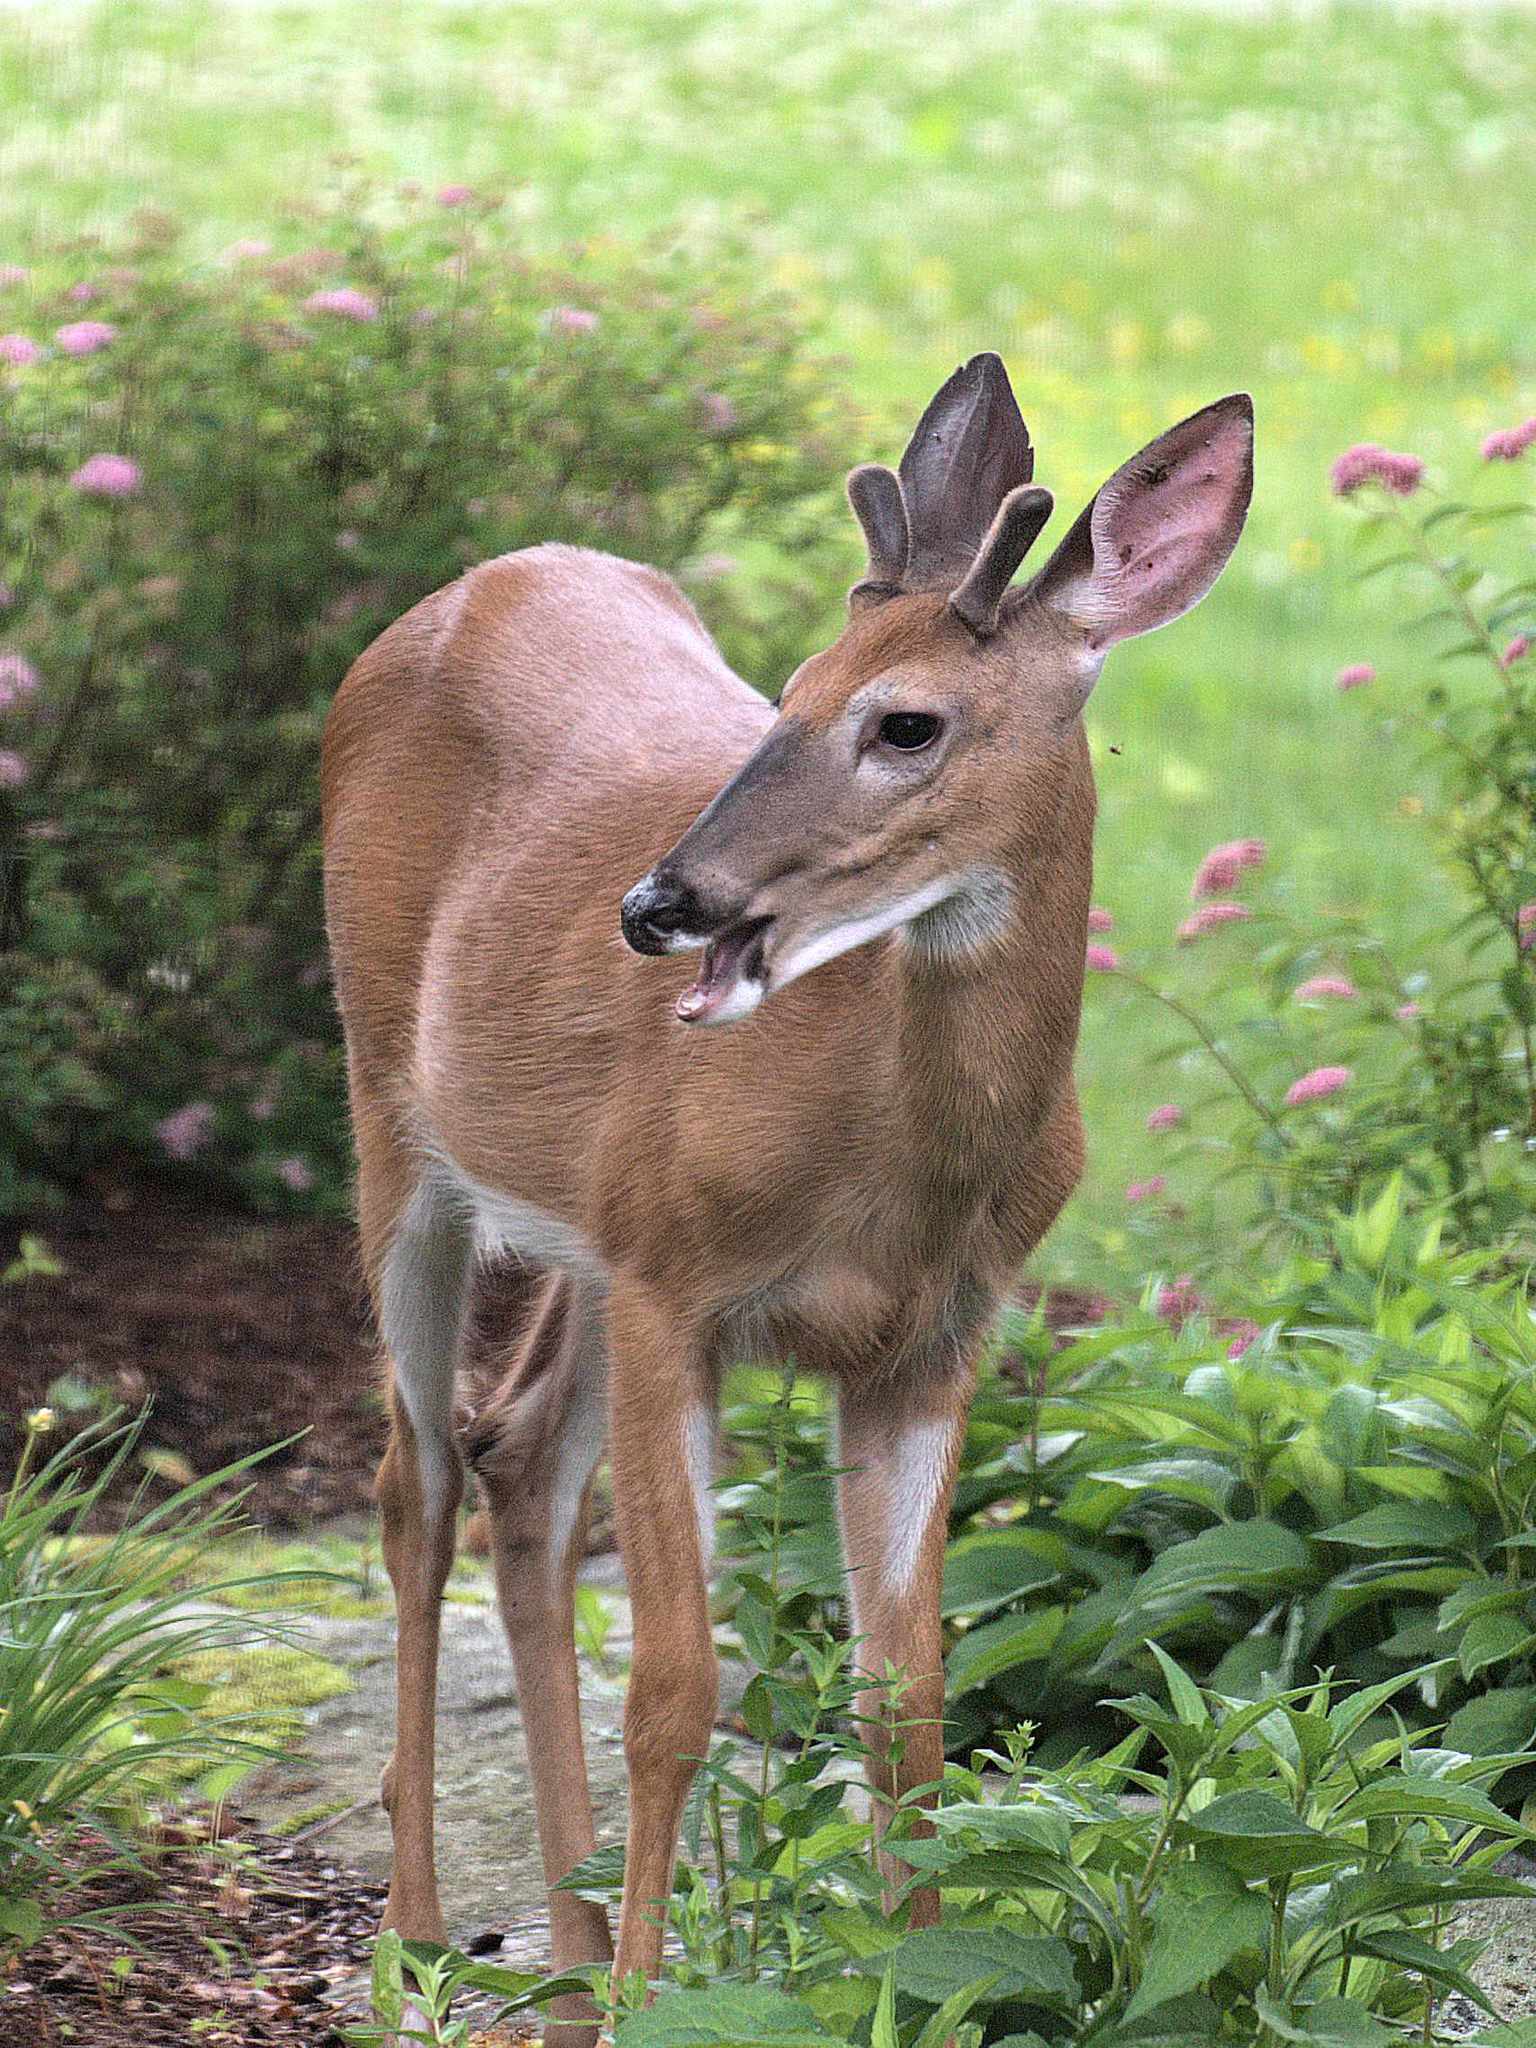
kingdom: Animalia
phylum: Chordata
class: Mammalia
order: Artiodactyla
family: Cervidae
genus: Odocoileus
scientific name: Odocoileus virginianus
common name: White-tailed deer
